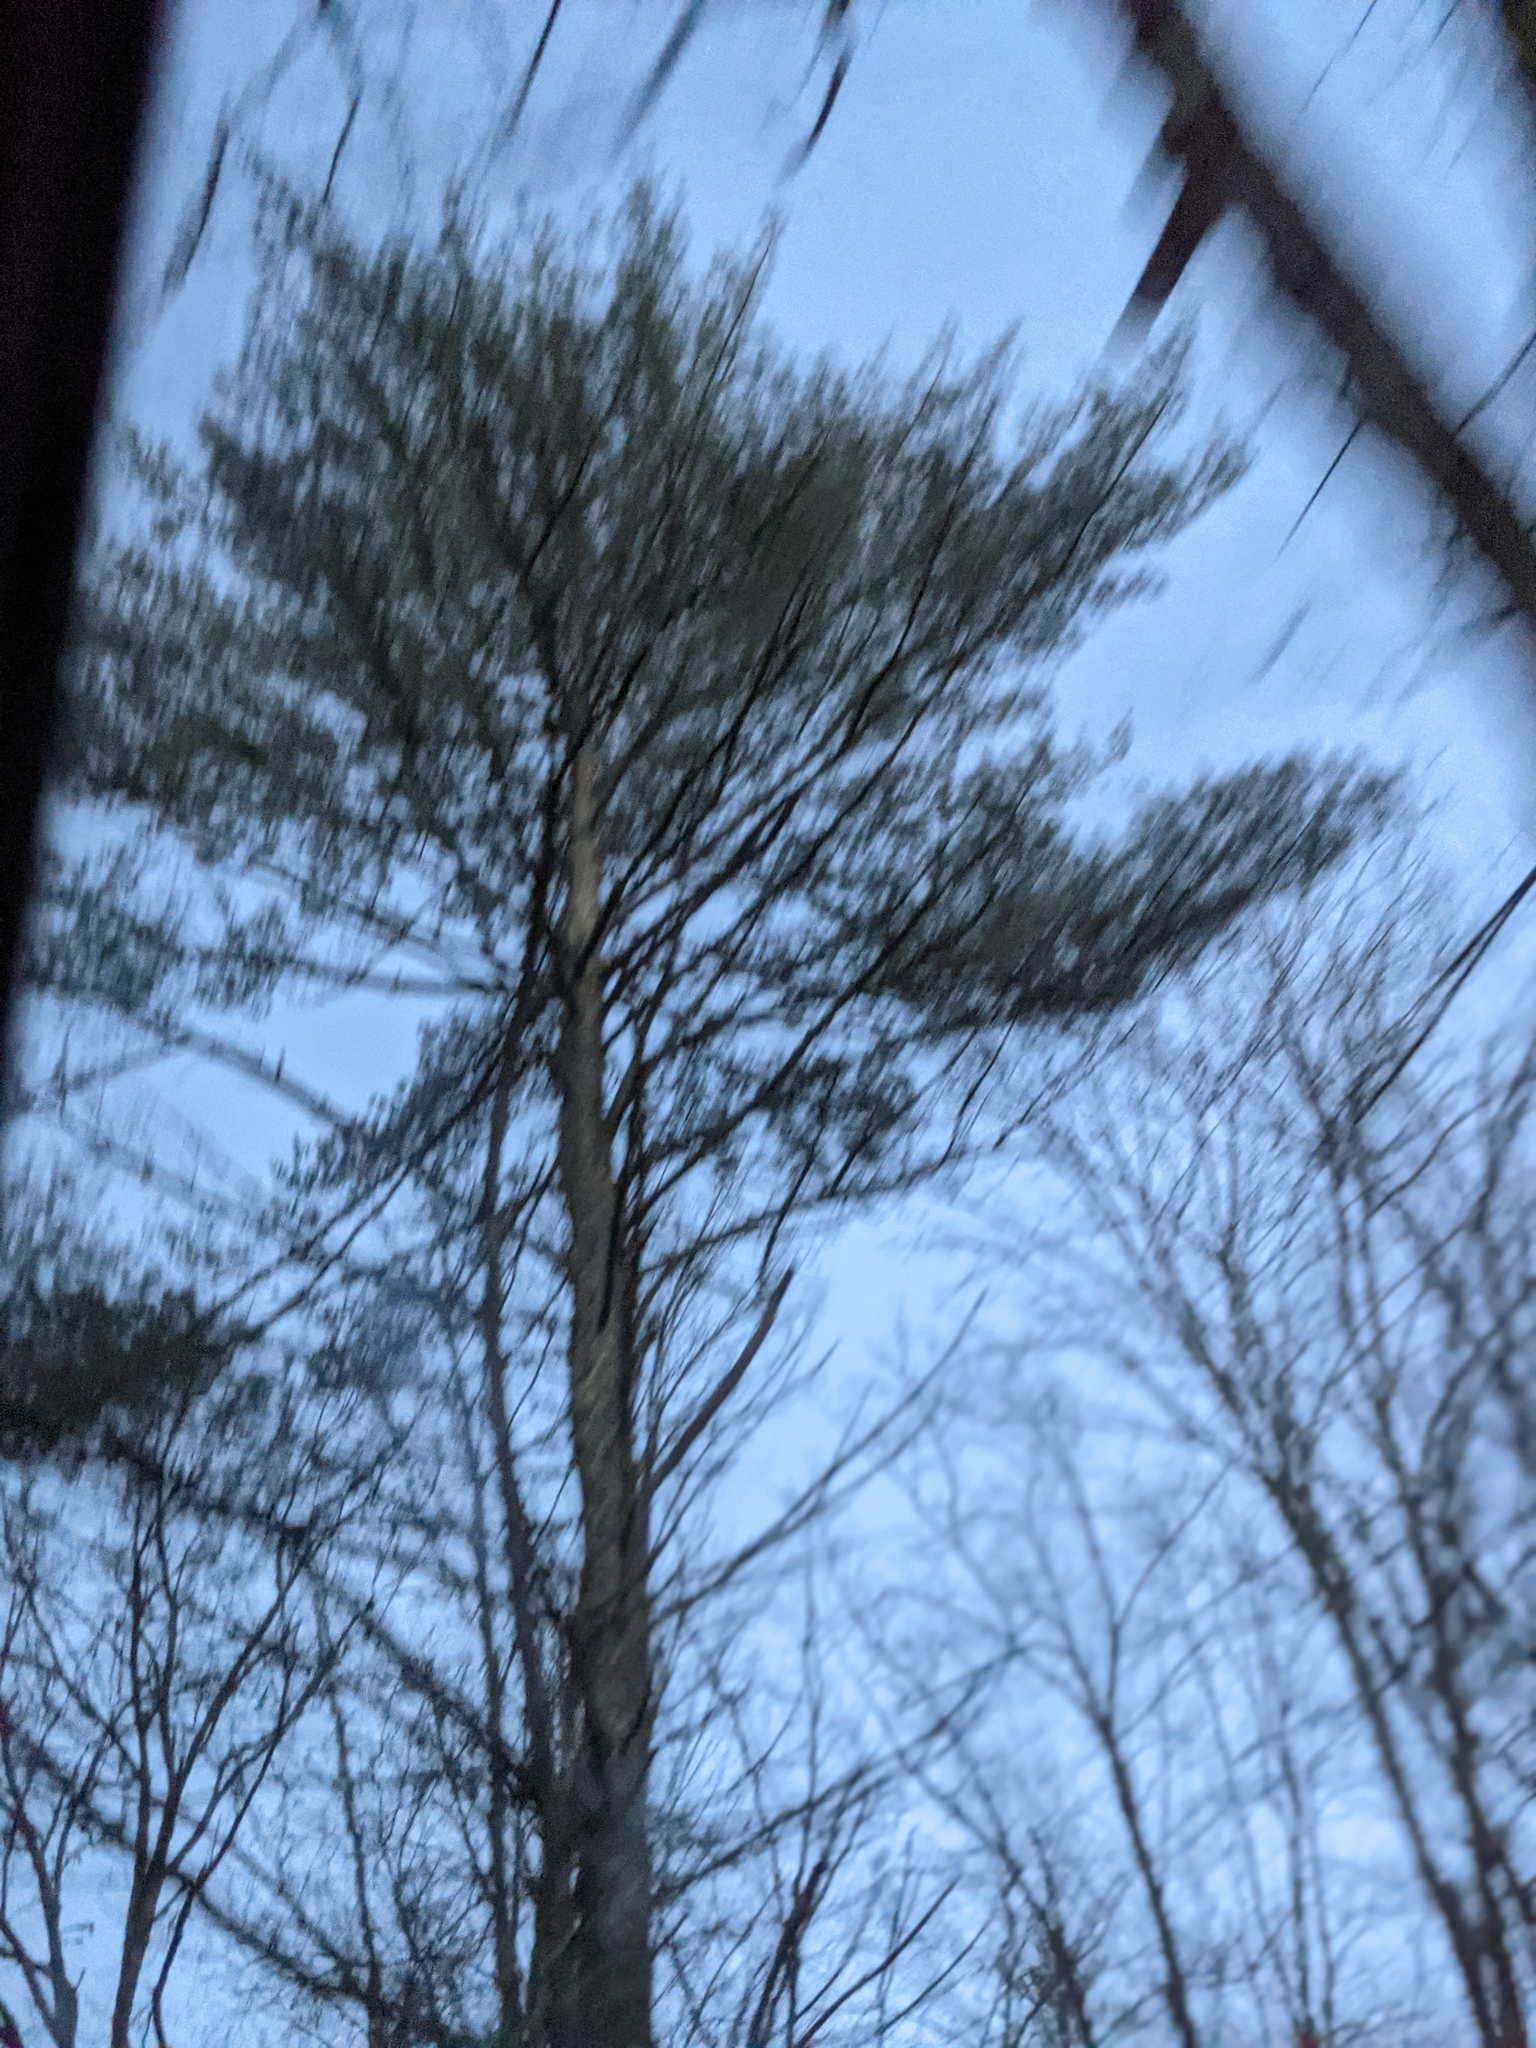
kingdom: Plantae
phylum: Tracheophyta
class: Pinopsida
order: Pinales
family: Pinaceae
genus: Pinus
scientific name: Pinus strobus
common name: Weymouth pine
